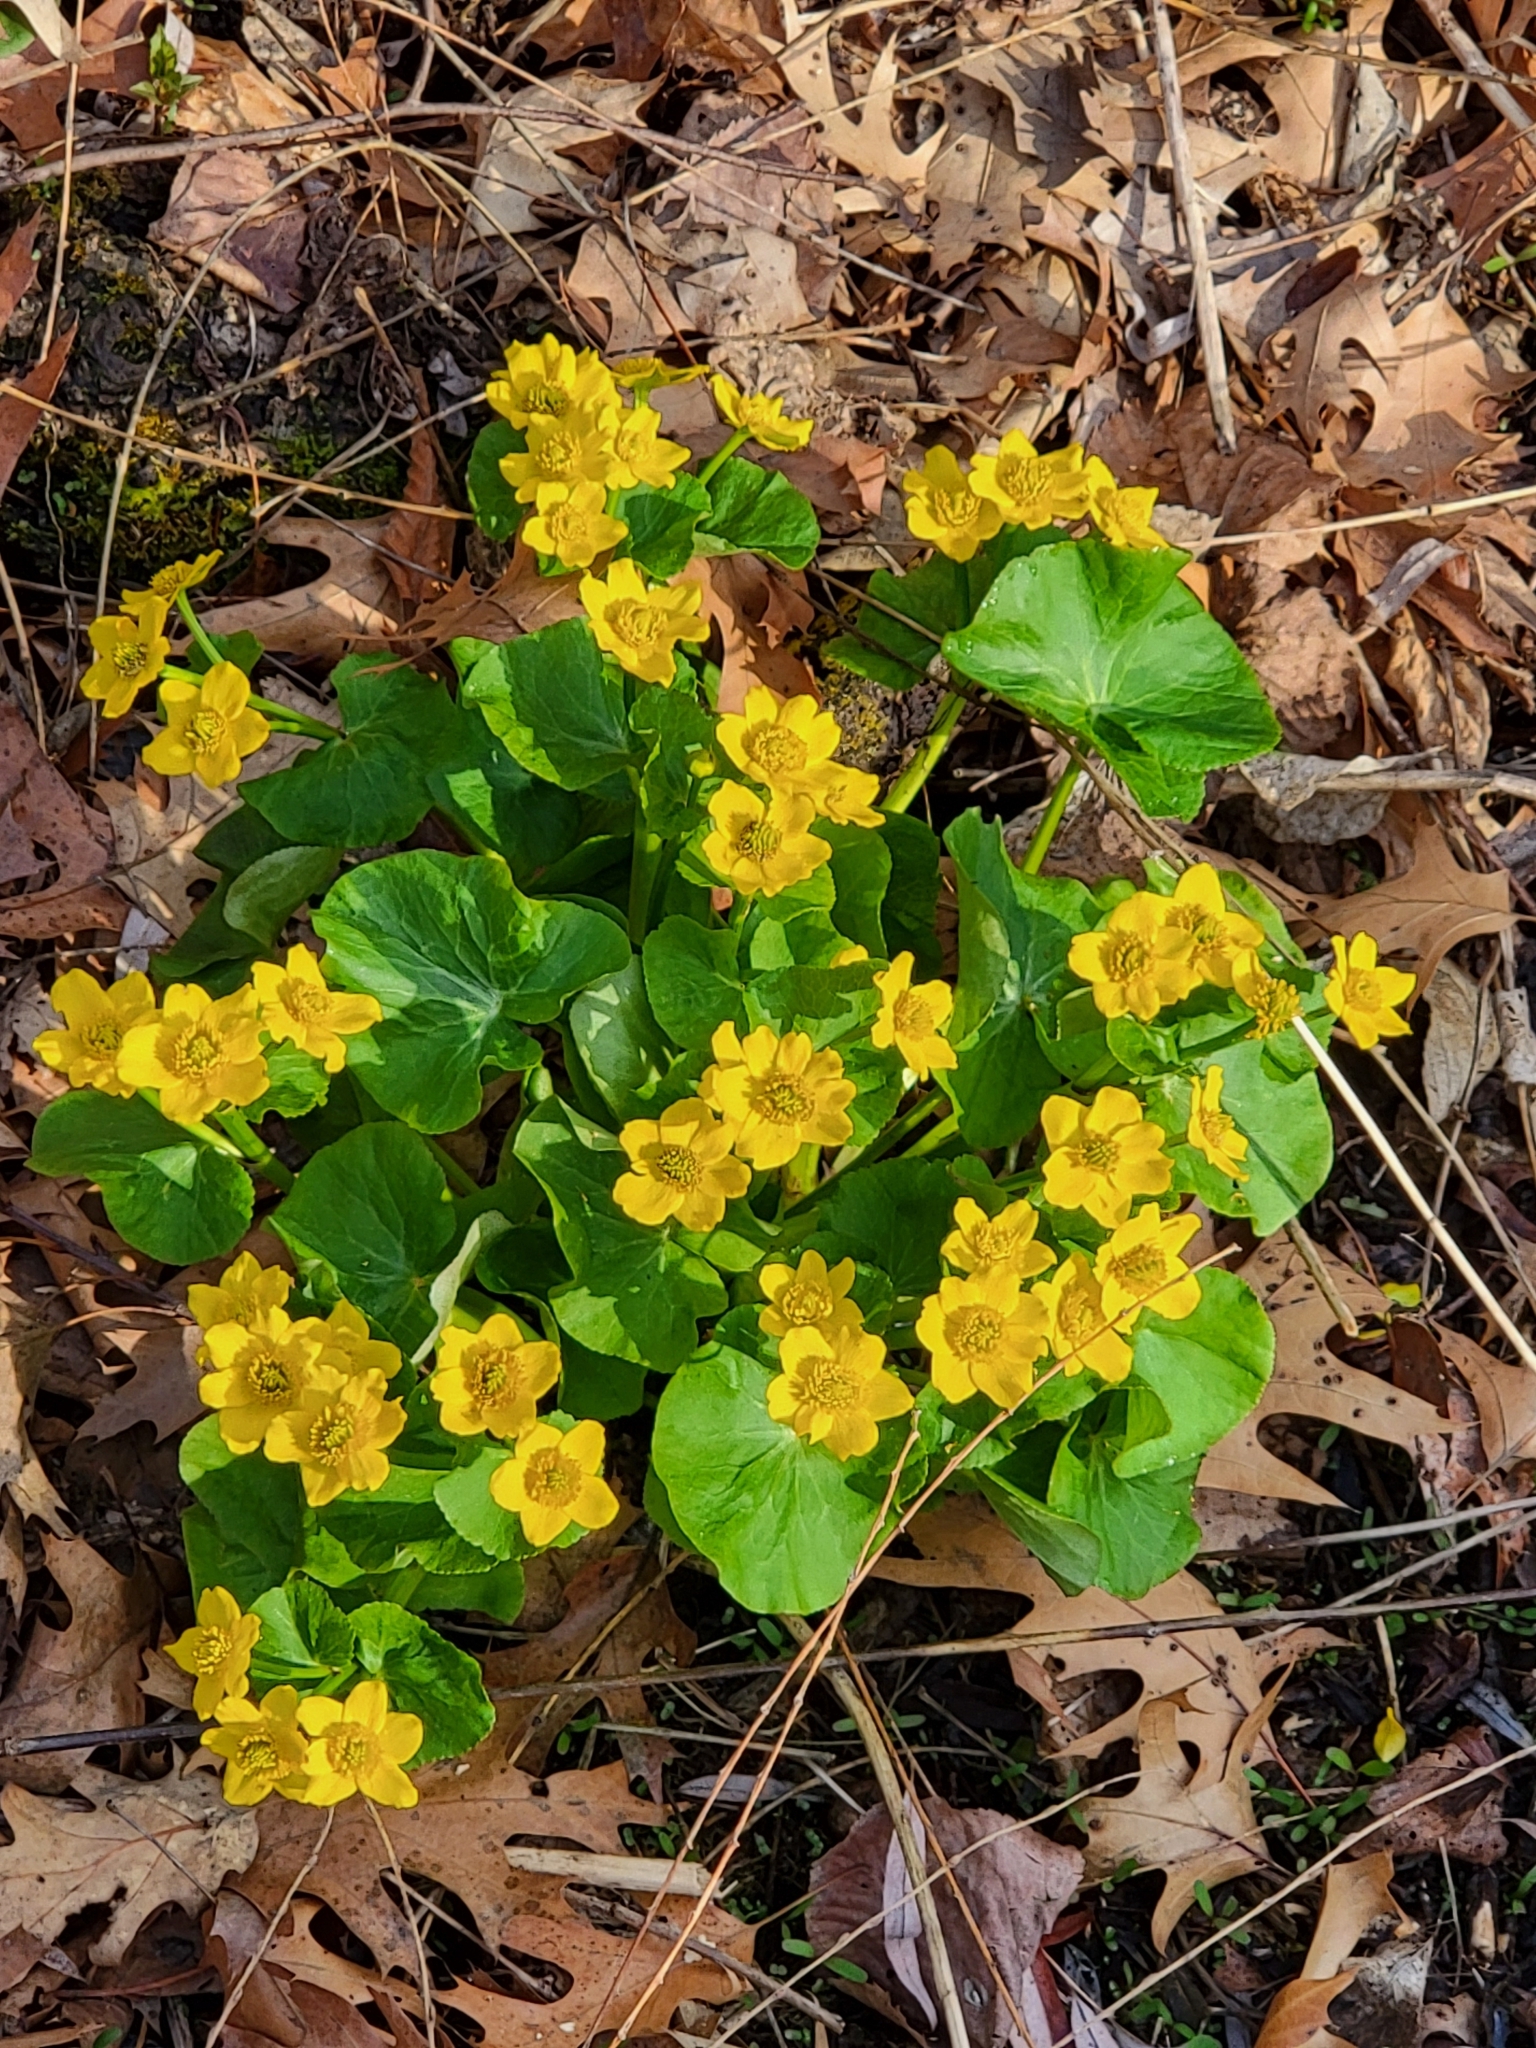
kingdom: Plantae
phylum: Tracheophyta
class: Magnoliopsida
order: Ranunculales
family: Ranunculaceae
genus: Caltha
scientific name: Caltha palustris
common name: Marsh marigold
